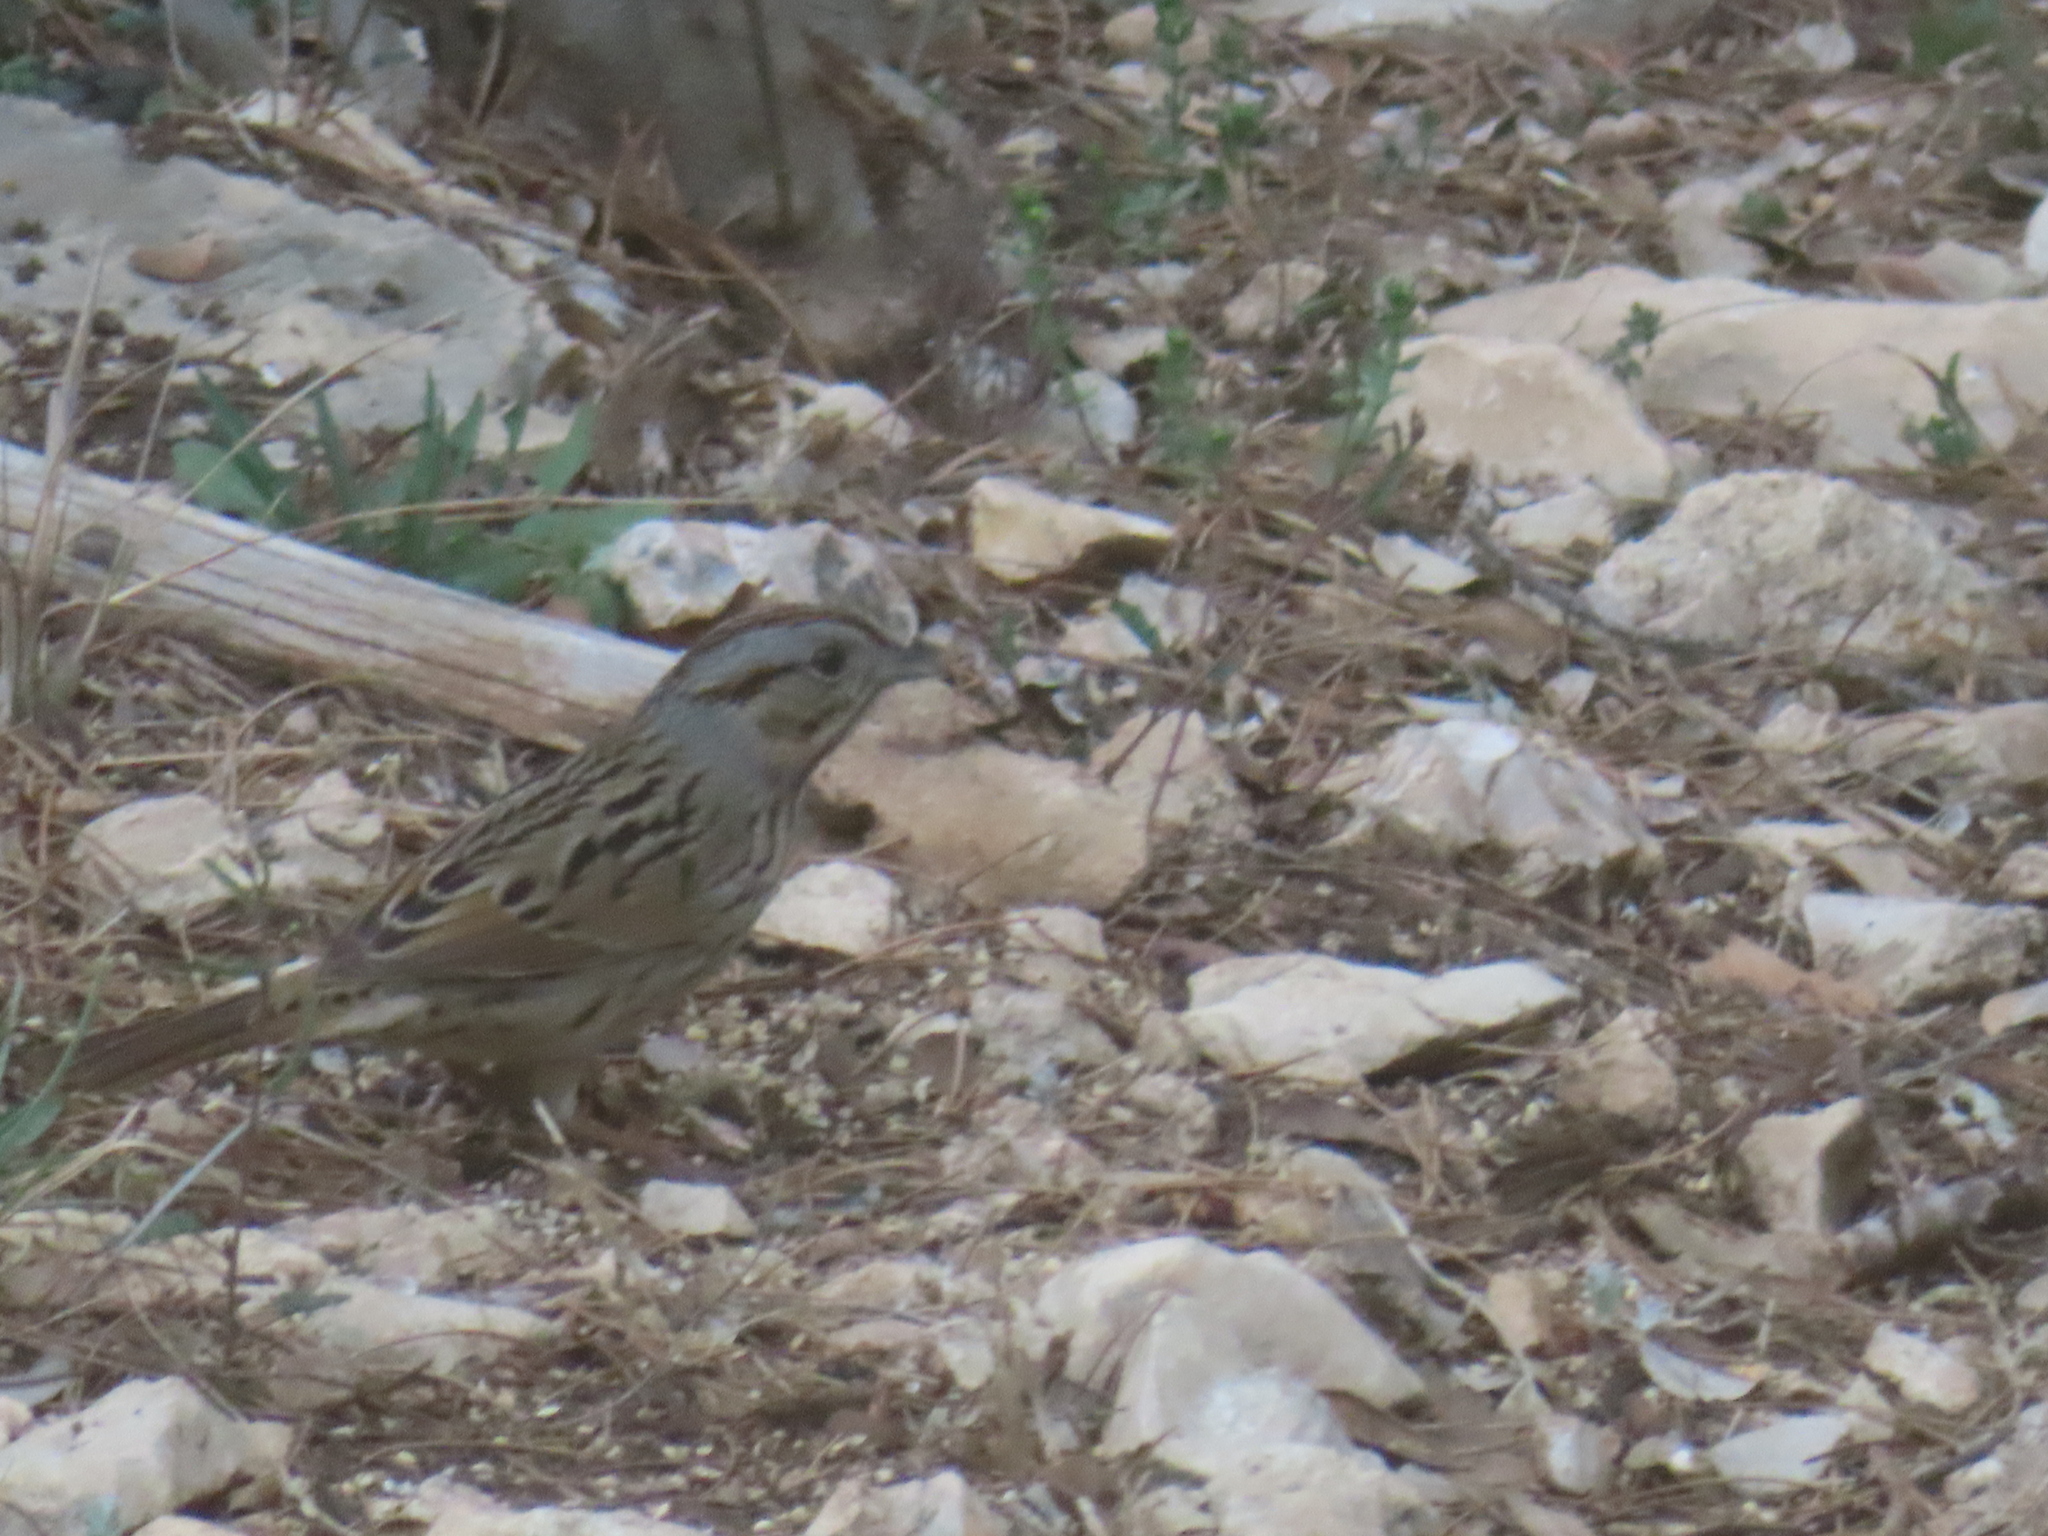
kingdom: Animalia
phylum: Chordata
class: Aves
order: Passeriformes
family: Passerellidae
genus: Melospiza
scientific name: Melospiza lincolnii
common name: Lincoln's sparrow
